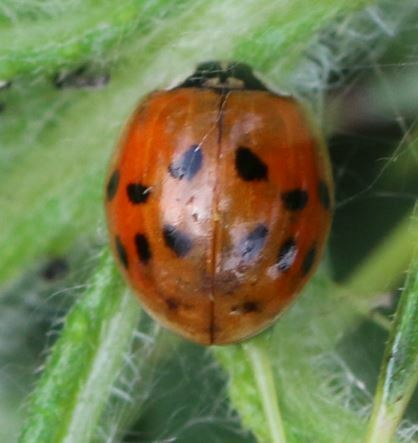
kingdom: Animalia
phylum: Arthropoda
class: Insecta
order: Coleoptera
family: Coccinellidae
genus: Harmonia
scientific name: Harmonia axyridis
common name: Harlequin ladybird
